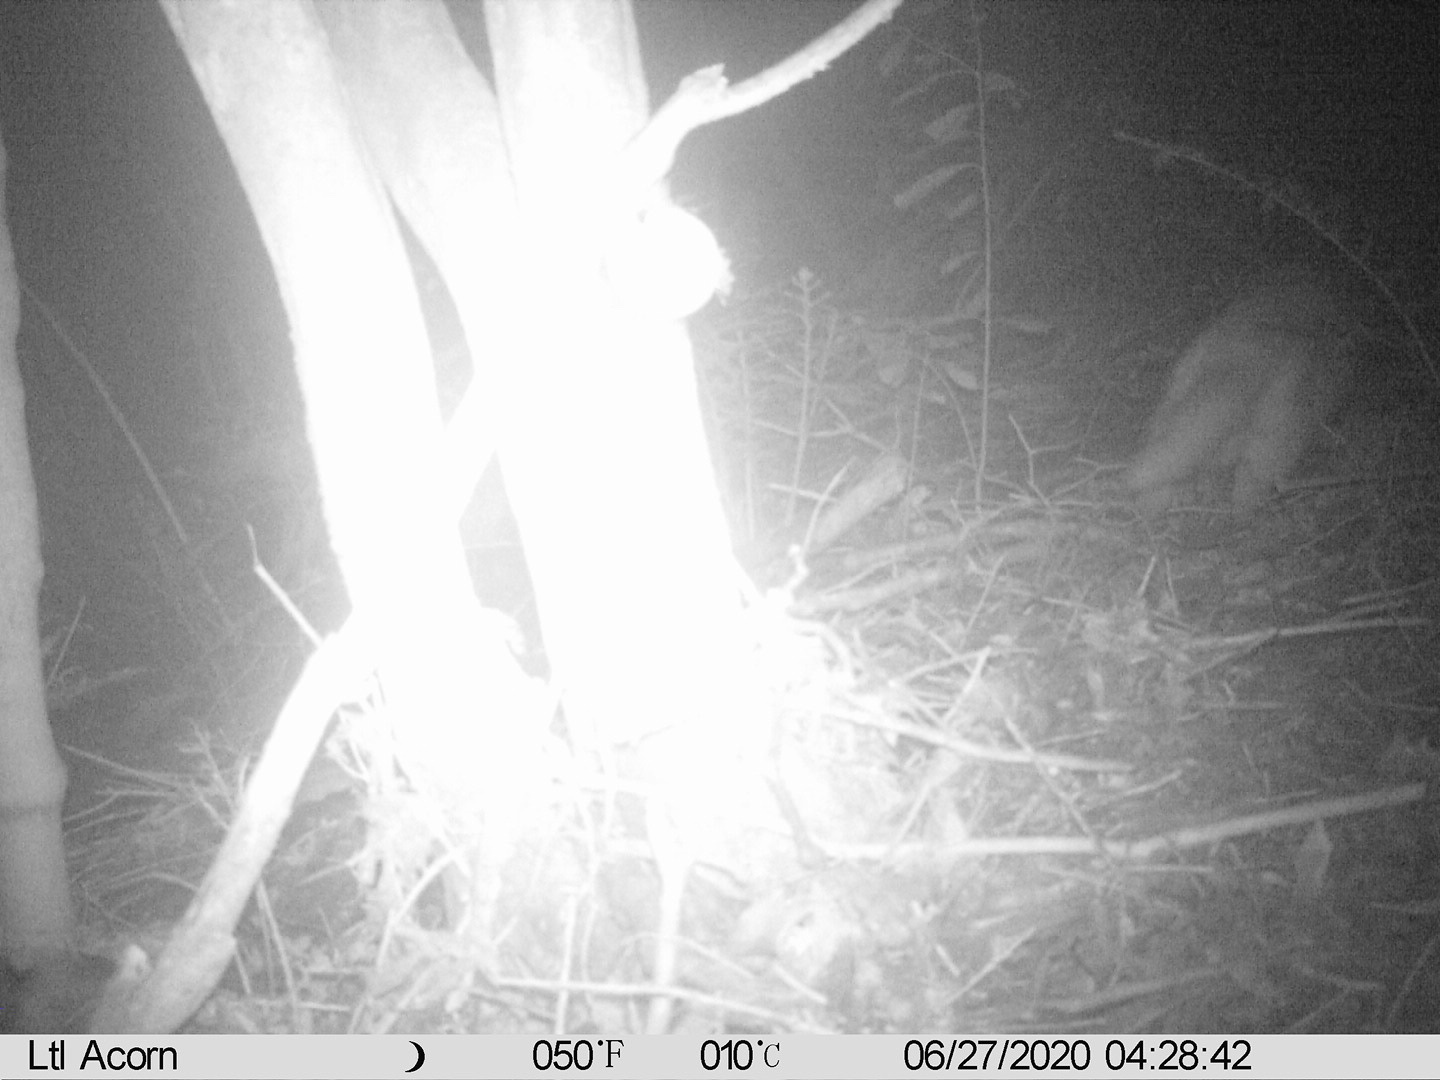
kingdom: Animalia
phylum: Chordata
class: Mammalia
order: Carnivora
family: Felidae
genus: Felis
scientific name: Felis catus
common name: Domestic cat
